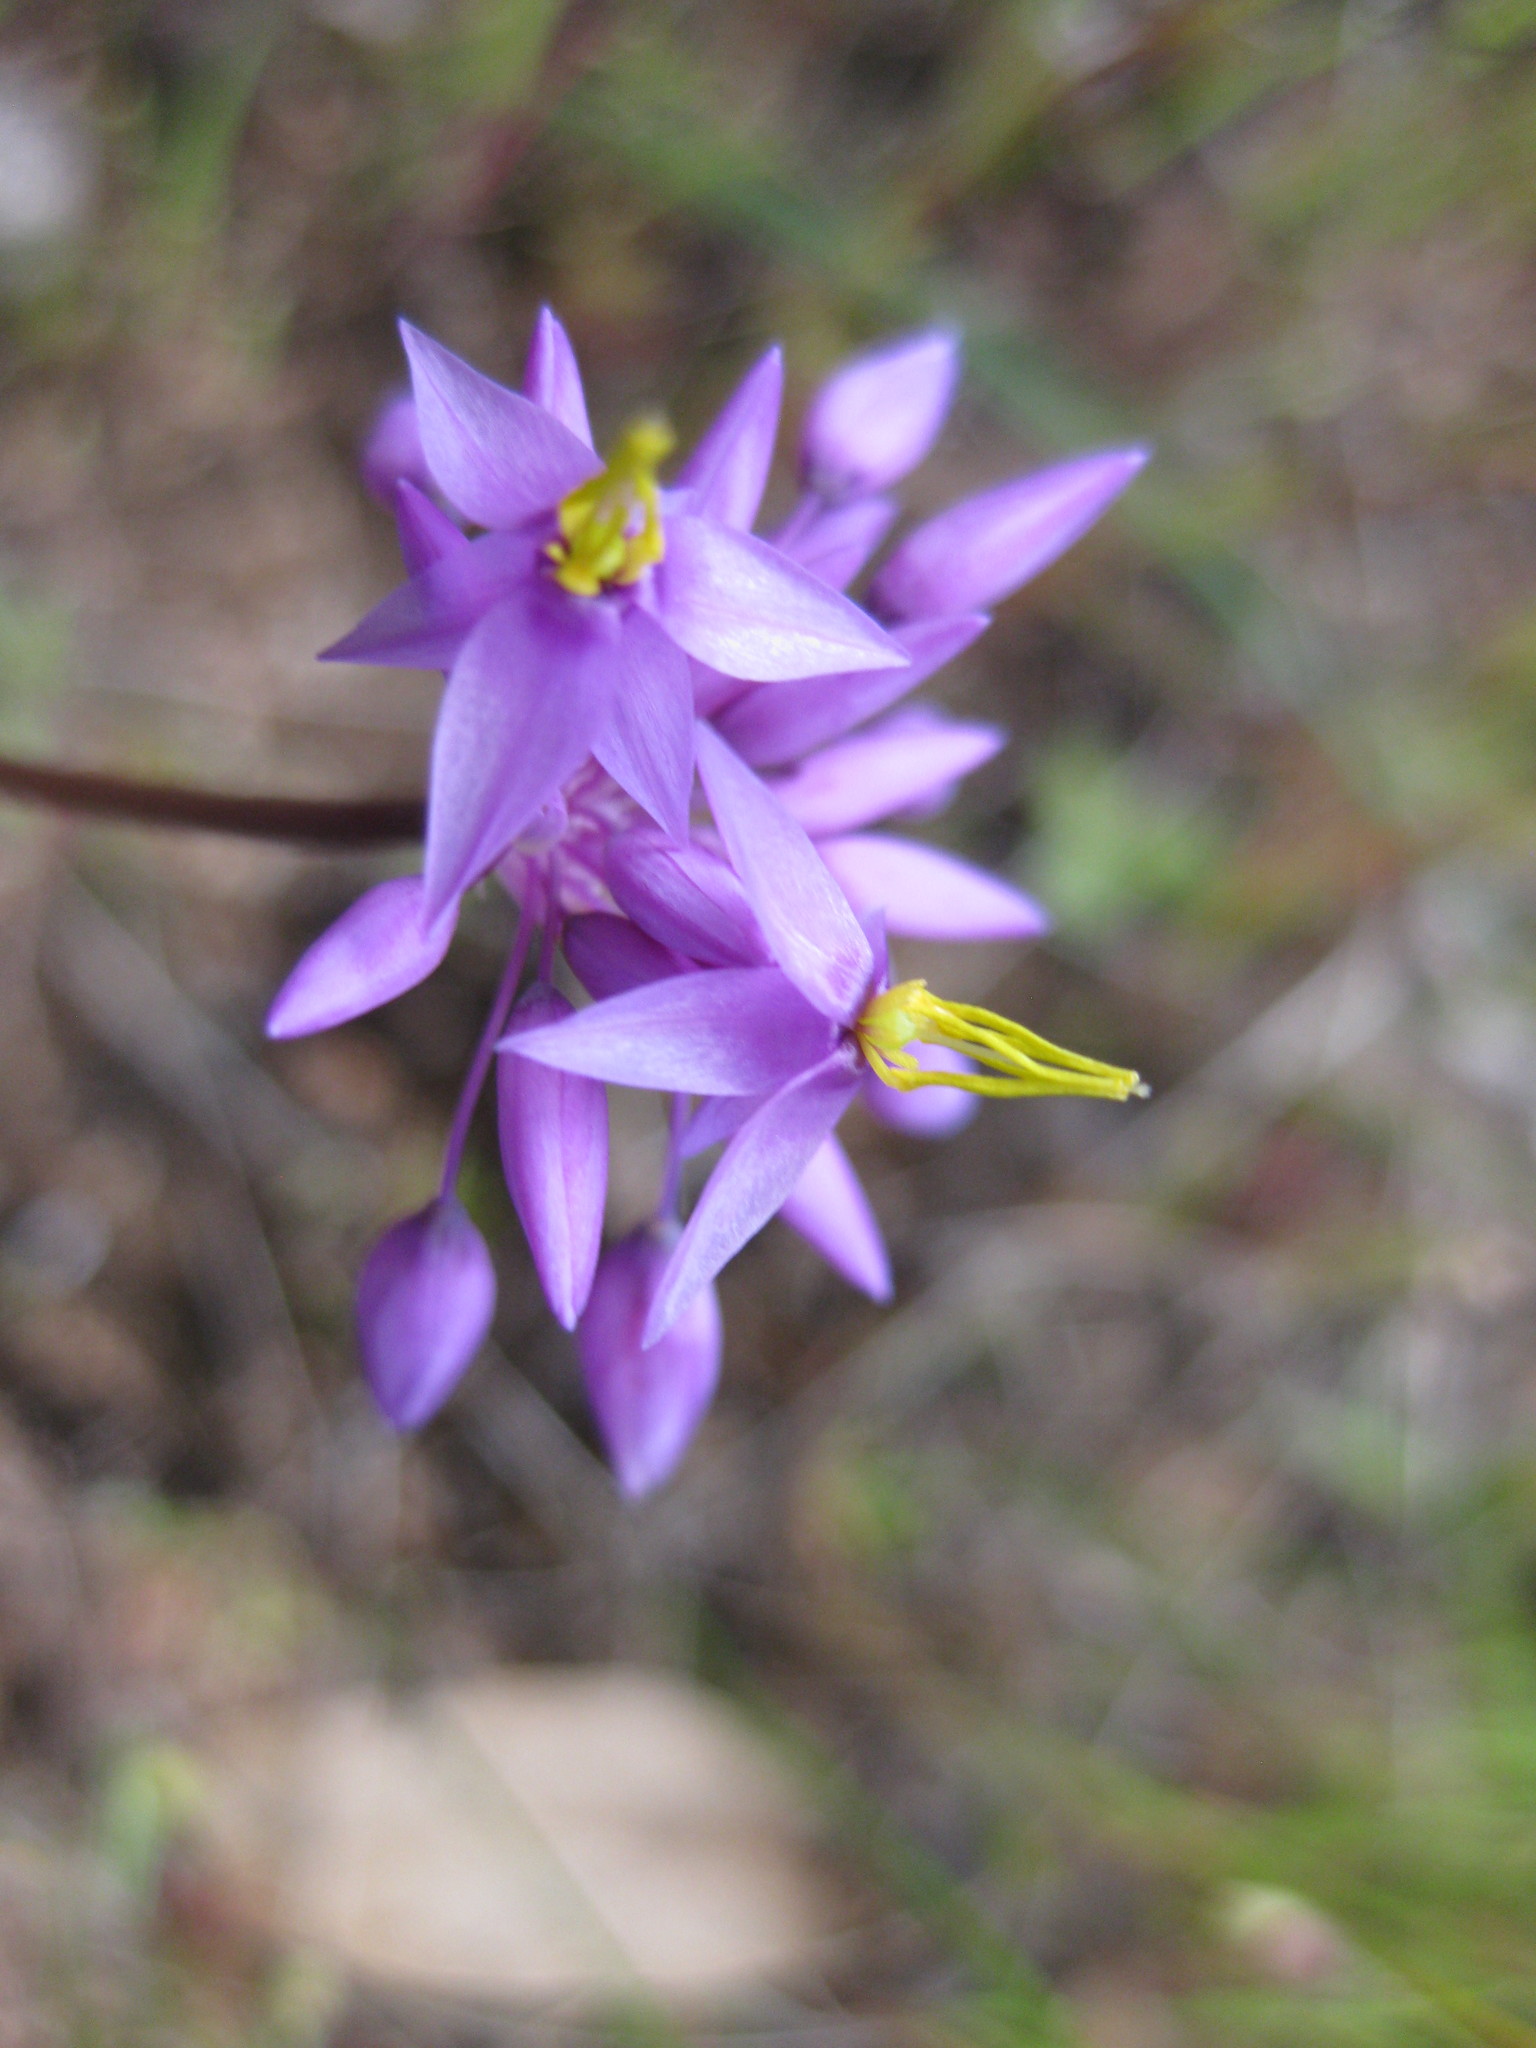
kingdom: Plantae
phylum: Tracheophyta
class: Liliopsida
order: Asparagales
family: Asparagaceae
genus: Sowerbaea
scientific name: Sowerbaea laxiflora
